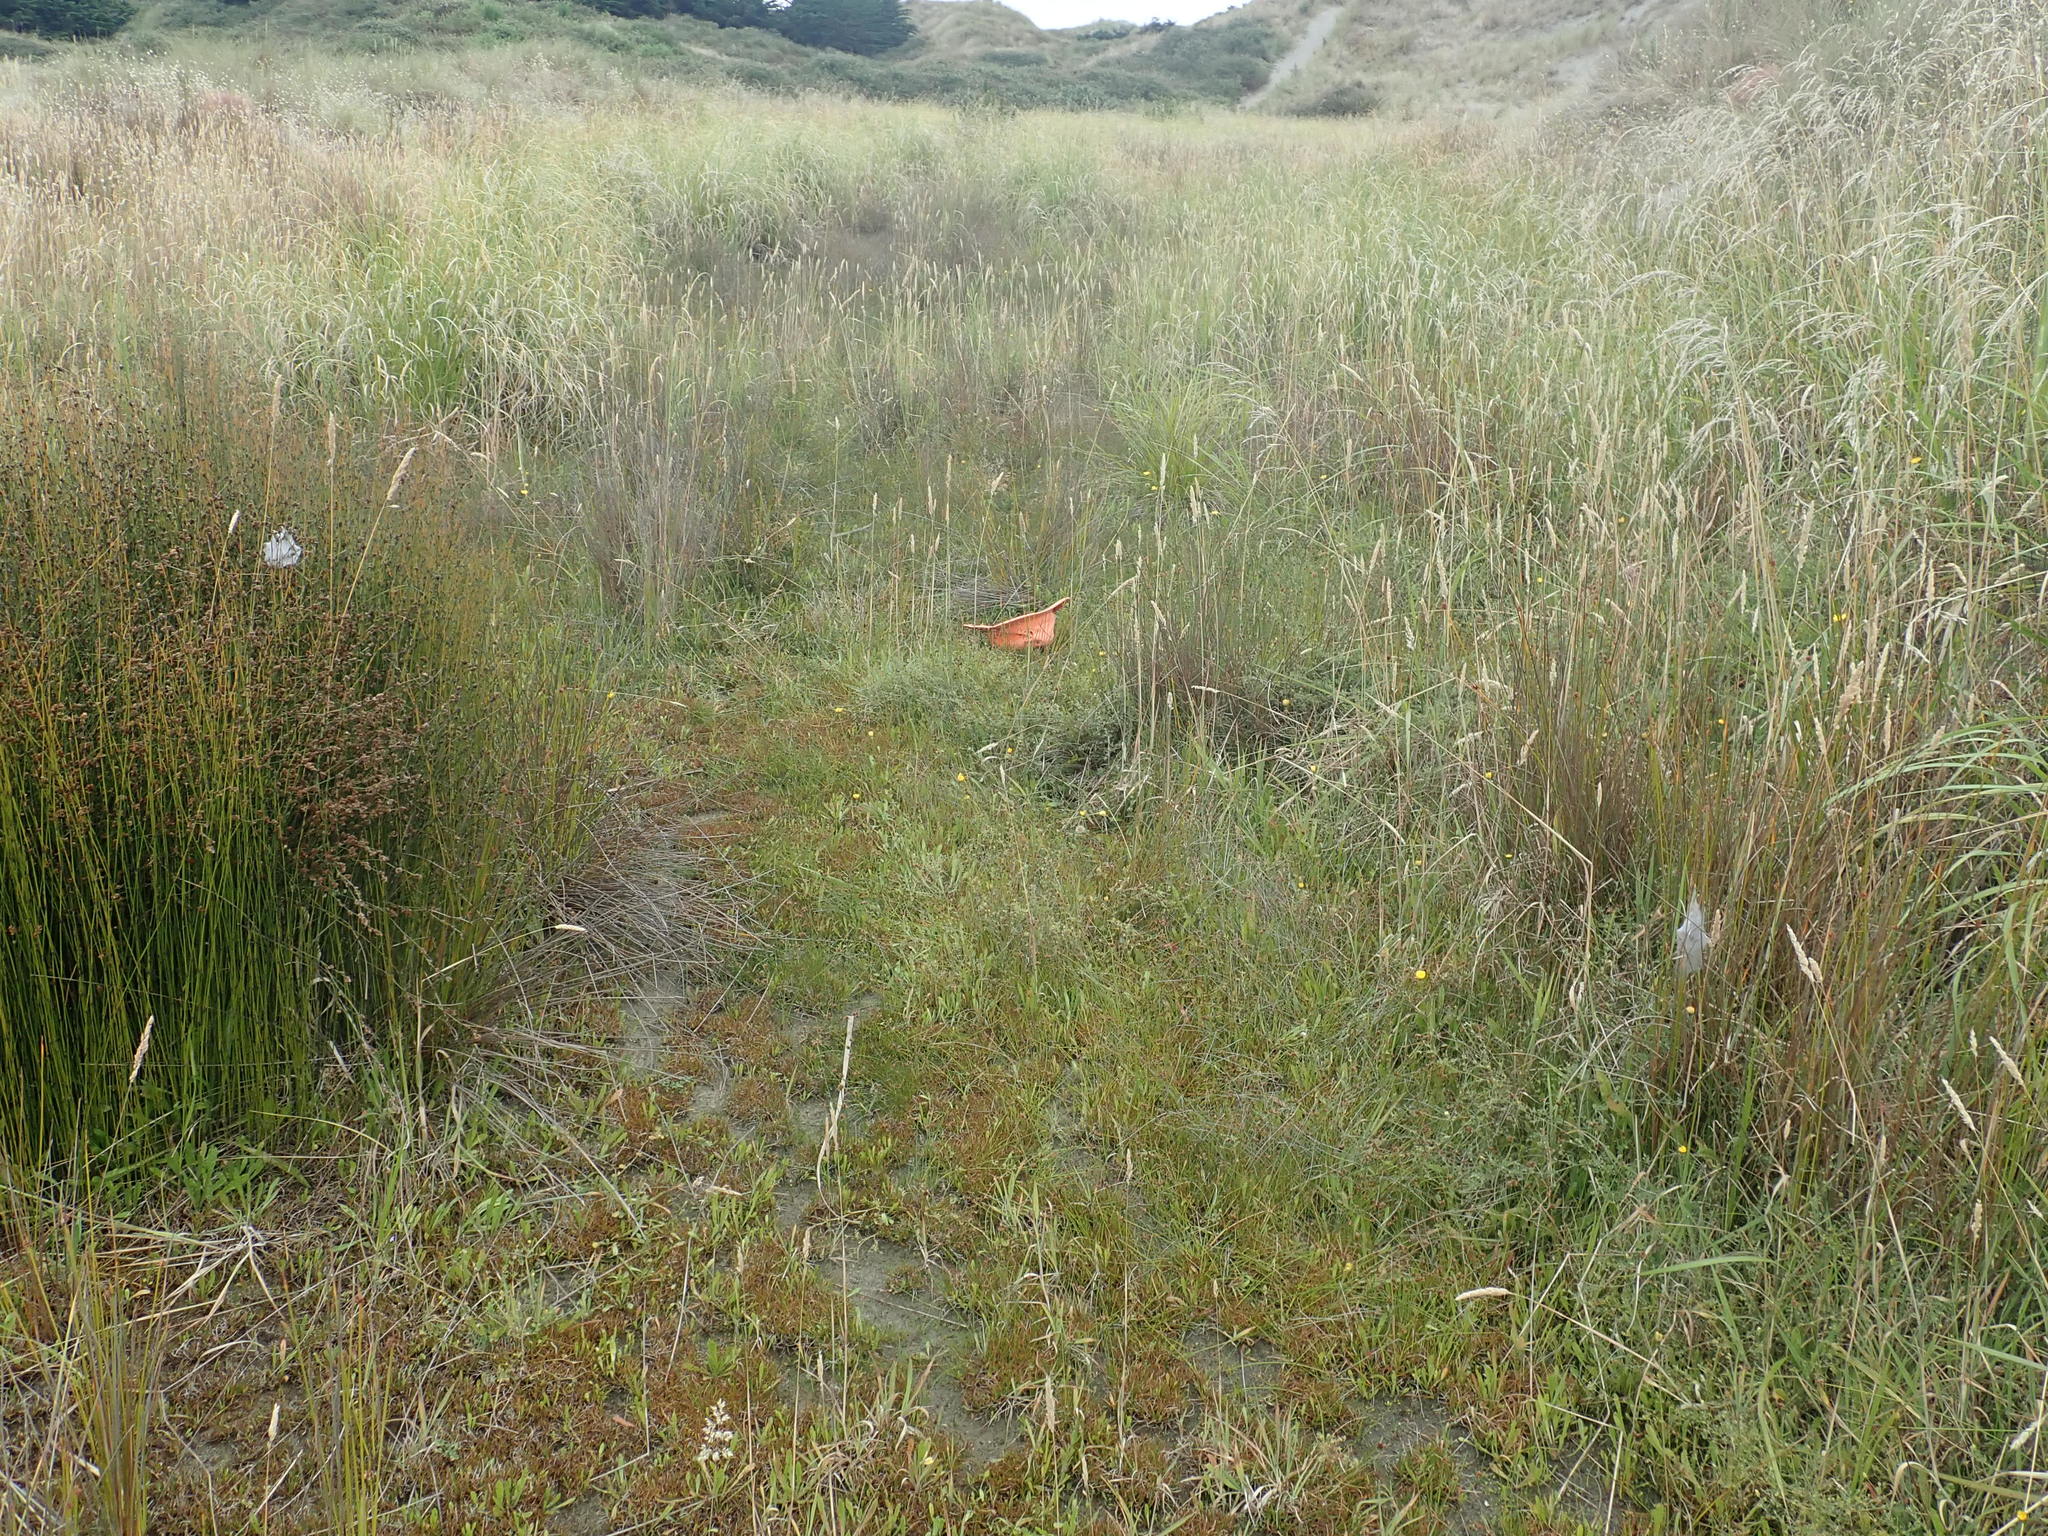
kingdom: Plantae
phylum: Tracheophyta
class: Magnoliopsida
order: Asterales
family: Campanulaceae
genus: Lobelia
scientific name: Lobelia anceps
